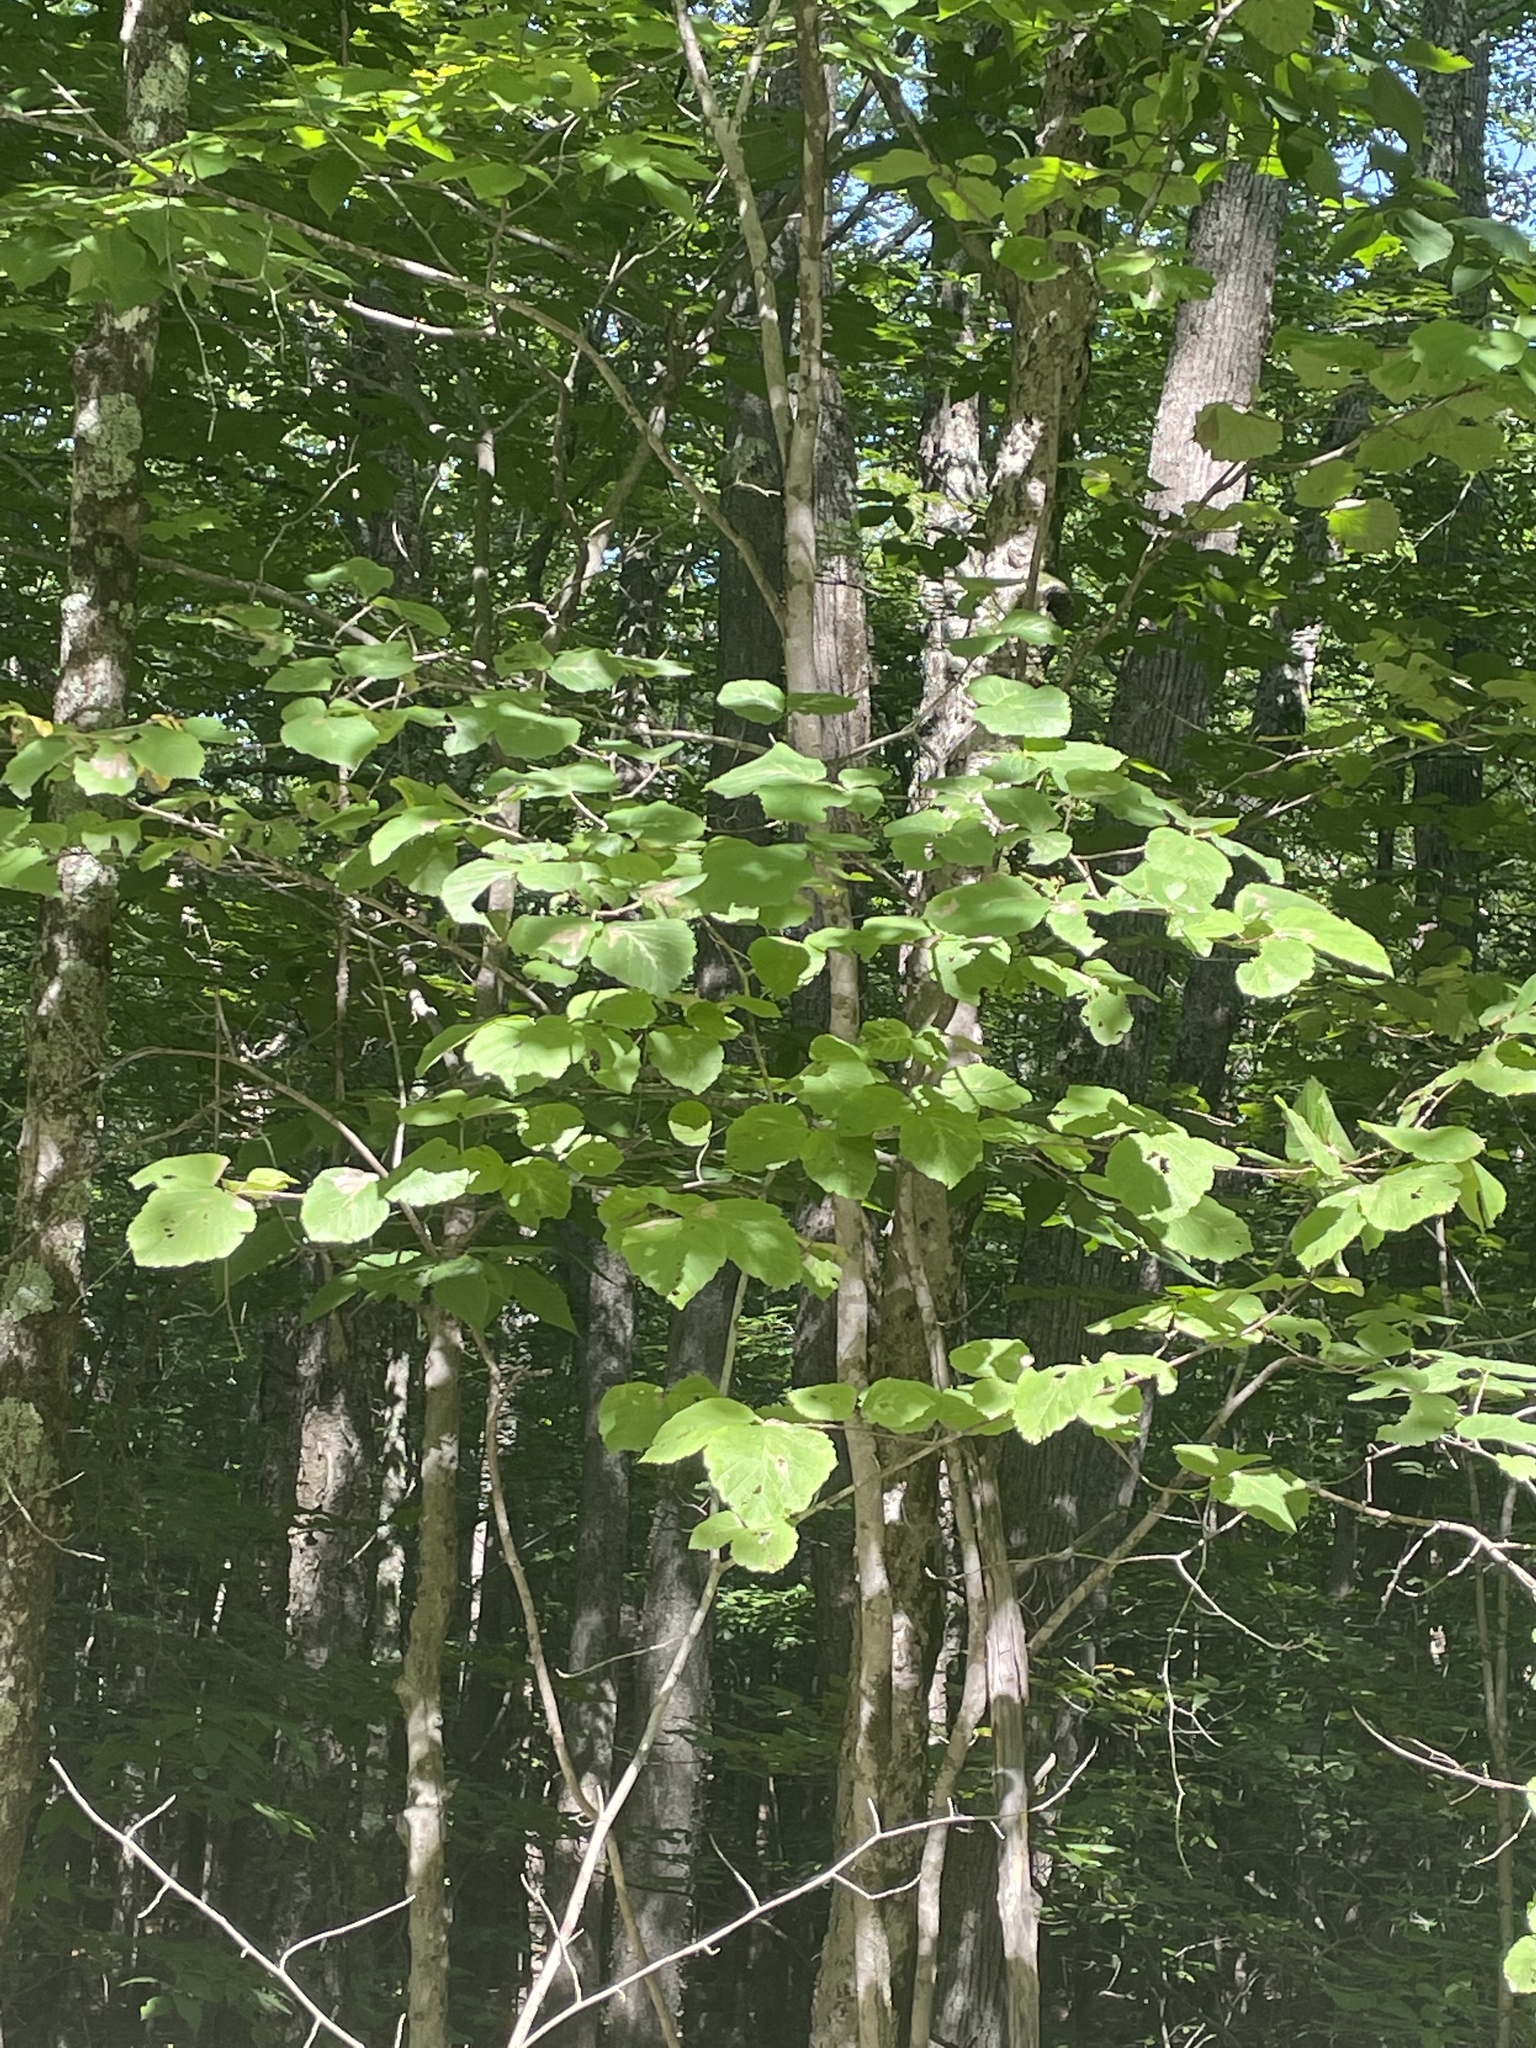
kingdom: Plantae
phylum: Tracheophyta
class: Magnoliopsida
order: Saxifragales
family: Hamamelidaceae
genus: Hamamelis
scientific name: Hamamelis virginiana
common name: Witch-hazel
